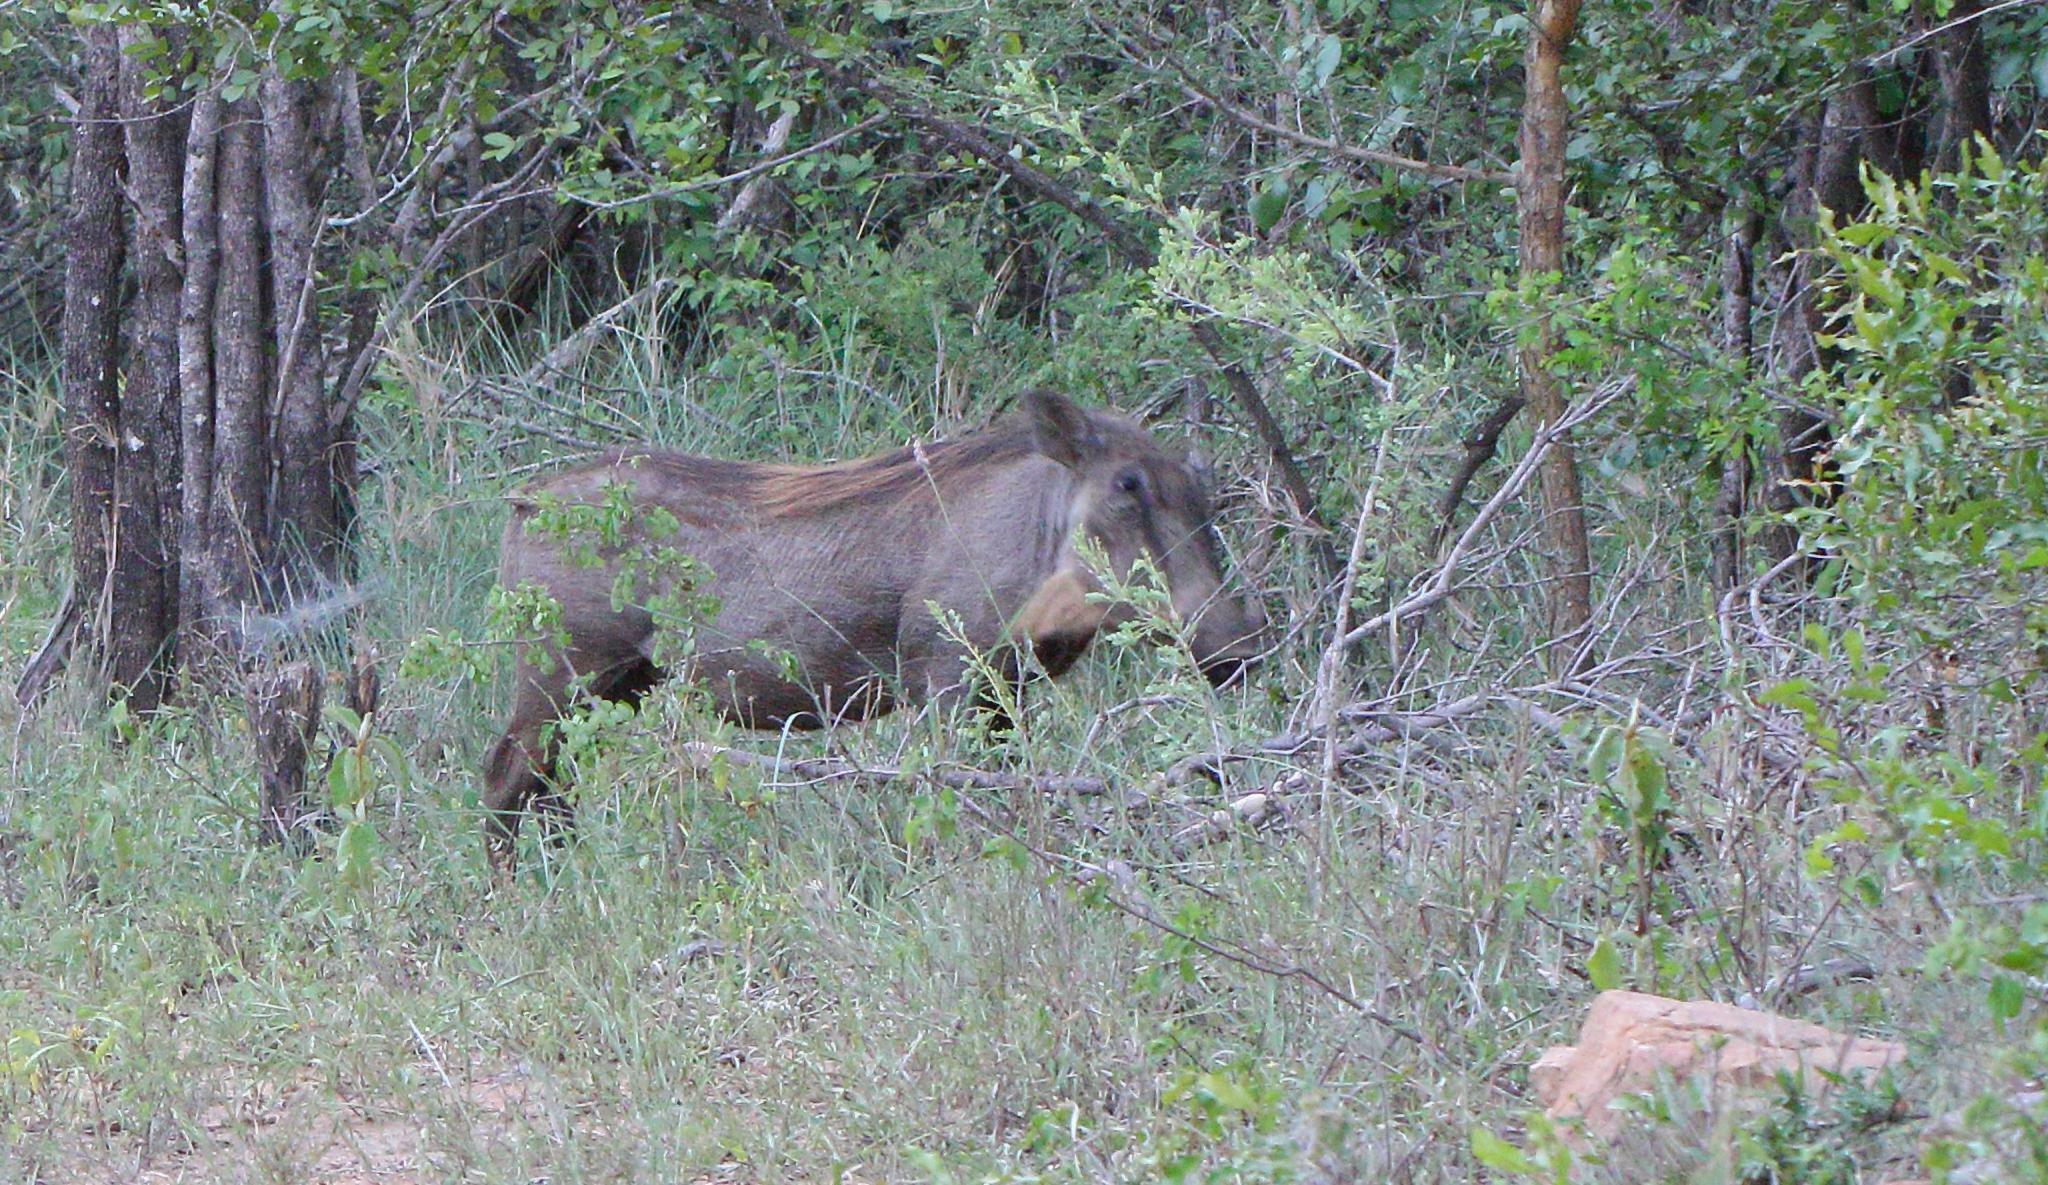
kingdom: Animalia
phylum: Chordata
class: Mammalia
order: Artiodactyla
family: Suidae
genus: Phacochoerus
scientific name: Phacochoerus africanus
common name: Common warthog
